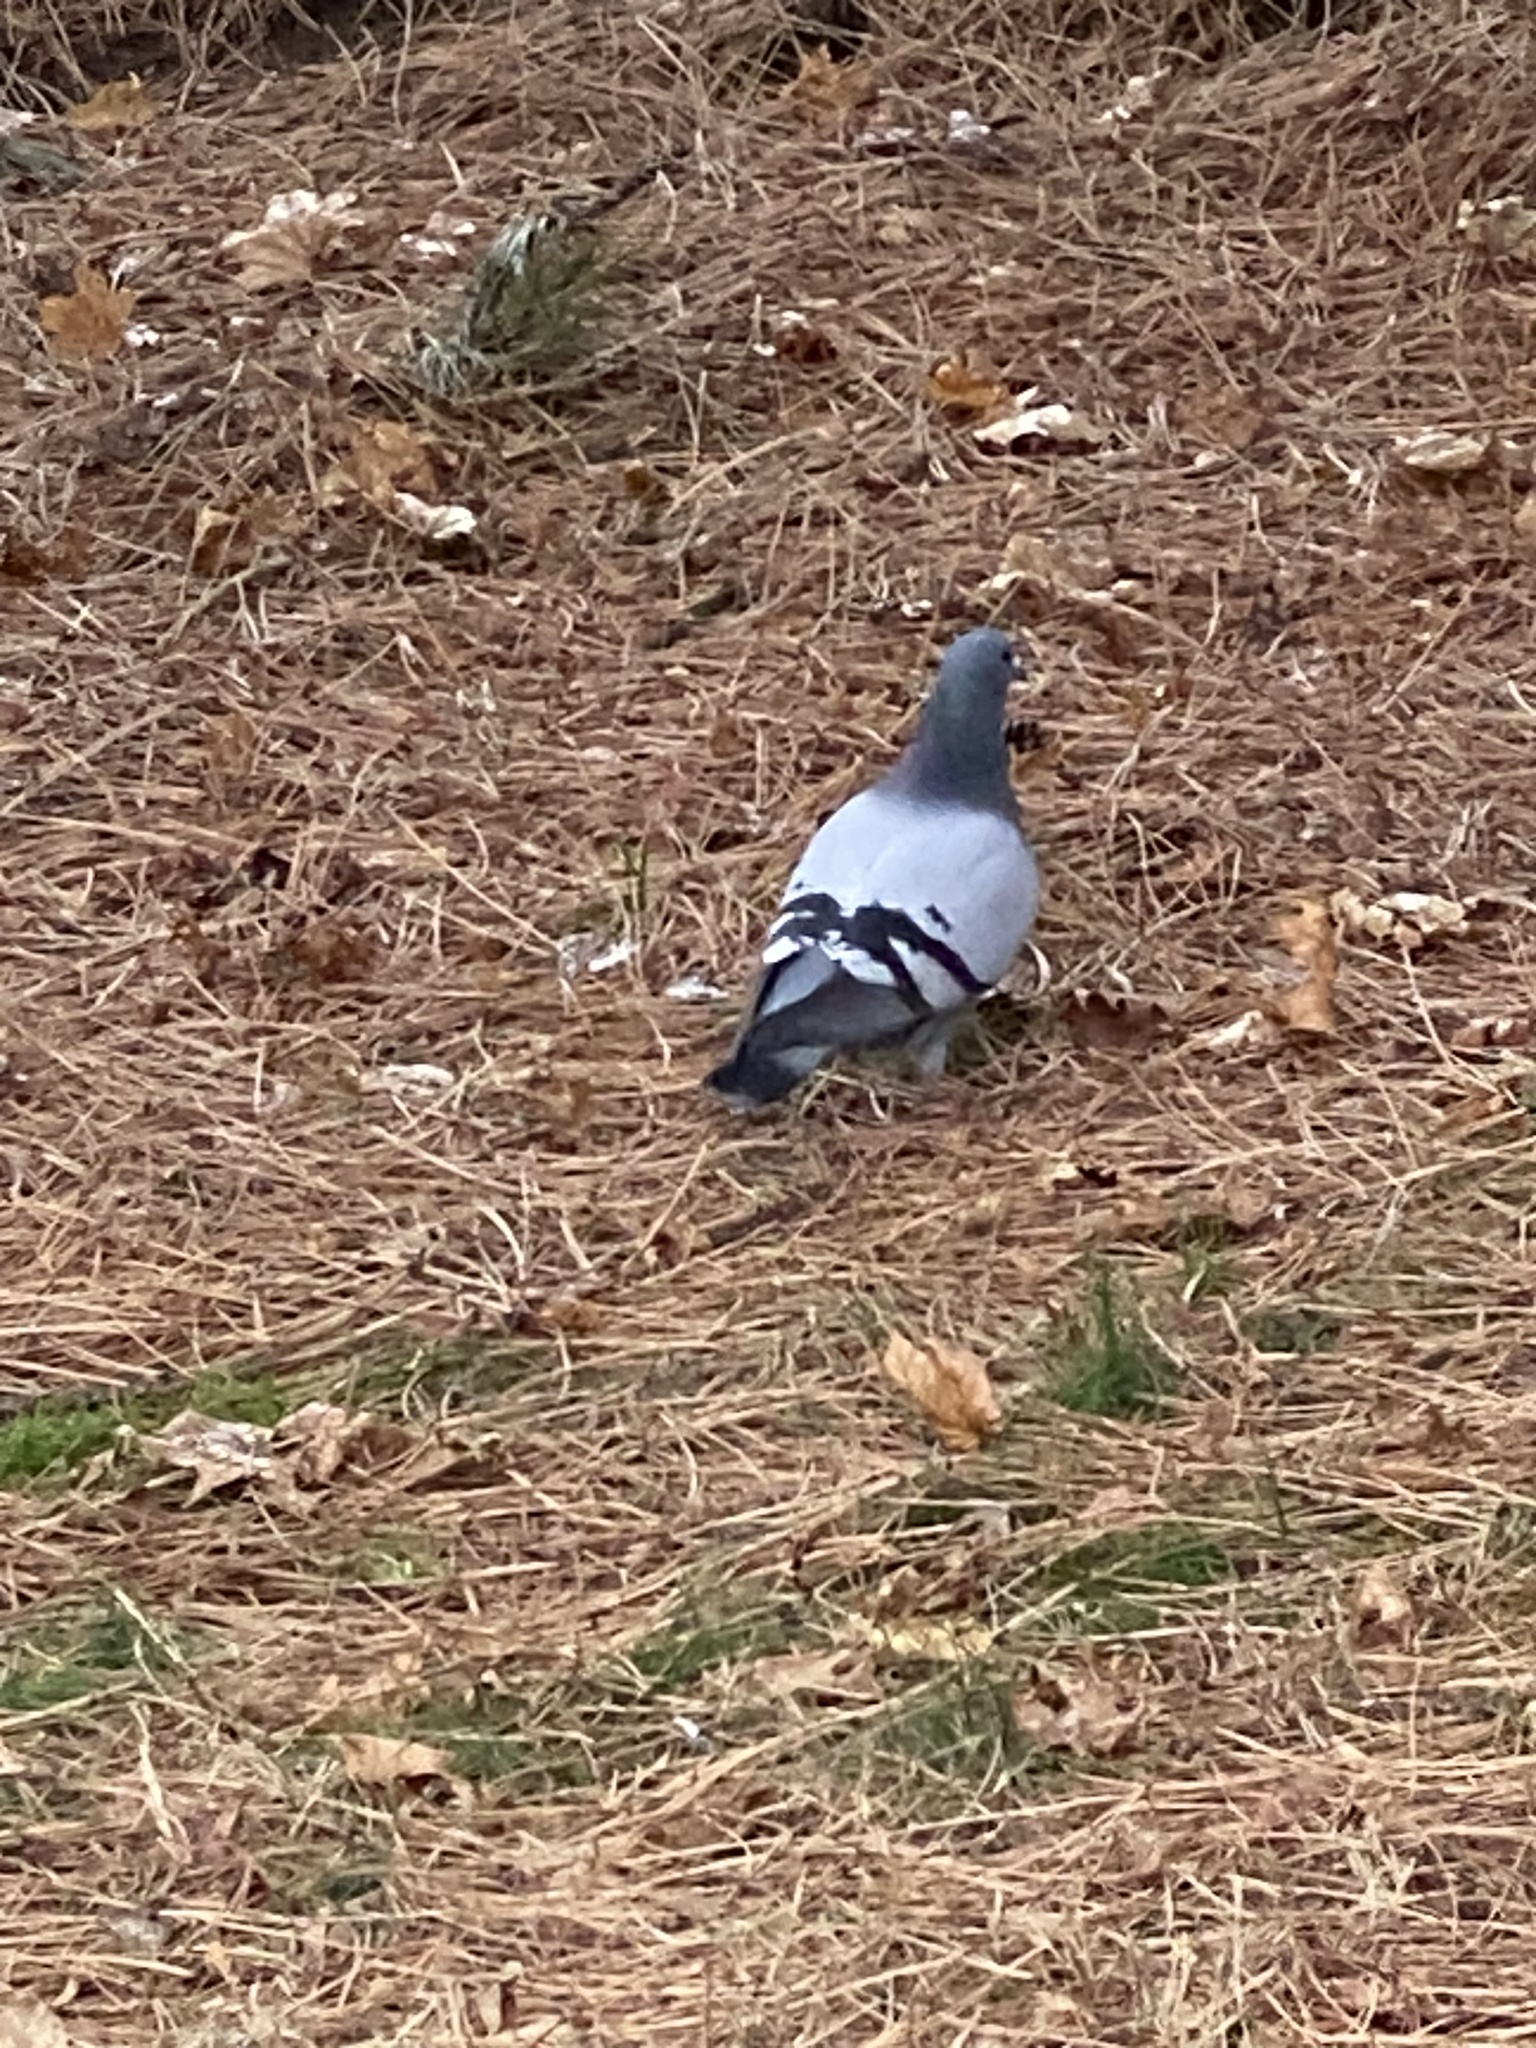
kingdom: Animalia
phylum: Chordata
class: Aves
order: Columbiformes
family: Columbidae
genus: Columba
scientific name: Columba livia
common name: Rock pigeon
